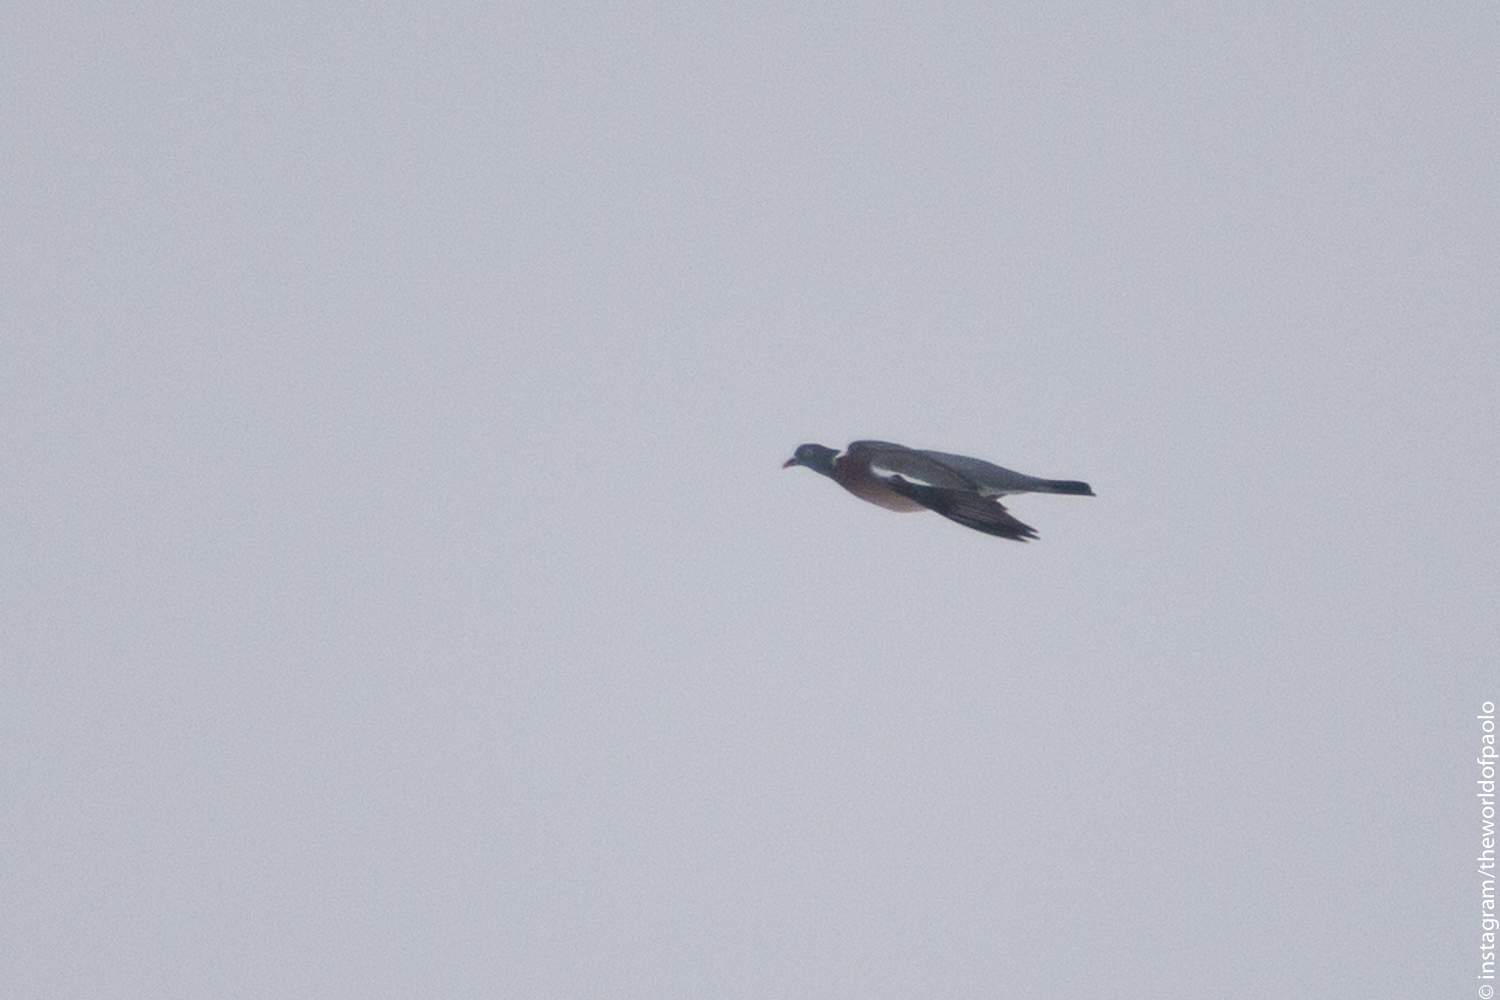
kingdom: Animalia
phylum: Chordata
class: Aves
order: Columbiformes
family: Columbidae
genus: Columba
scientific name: Columba palumbus
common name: Common wood pigeon
